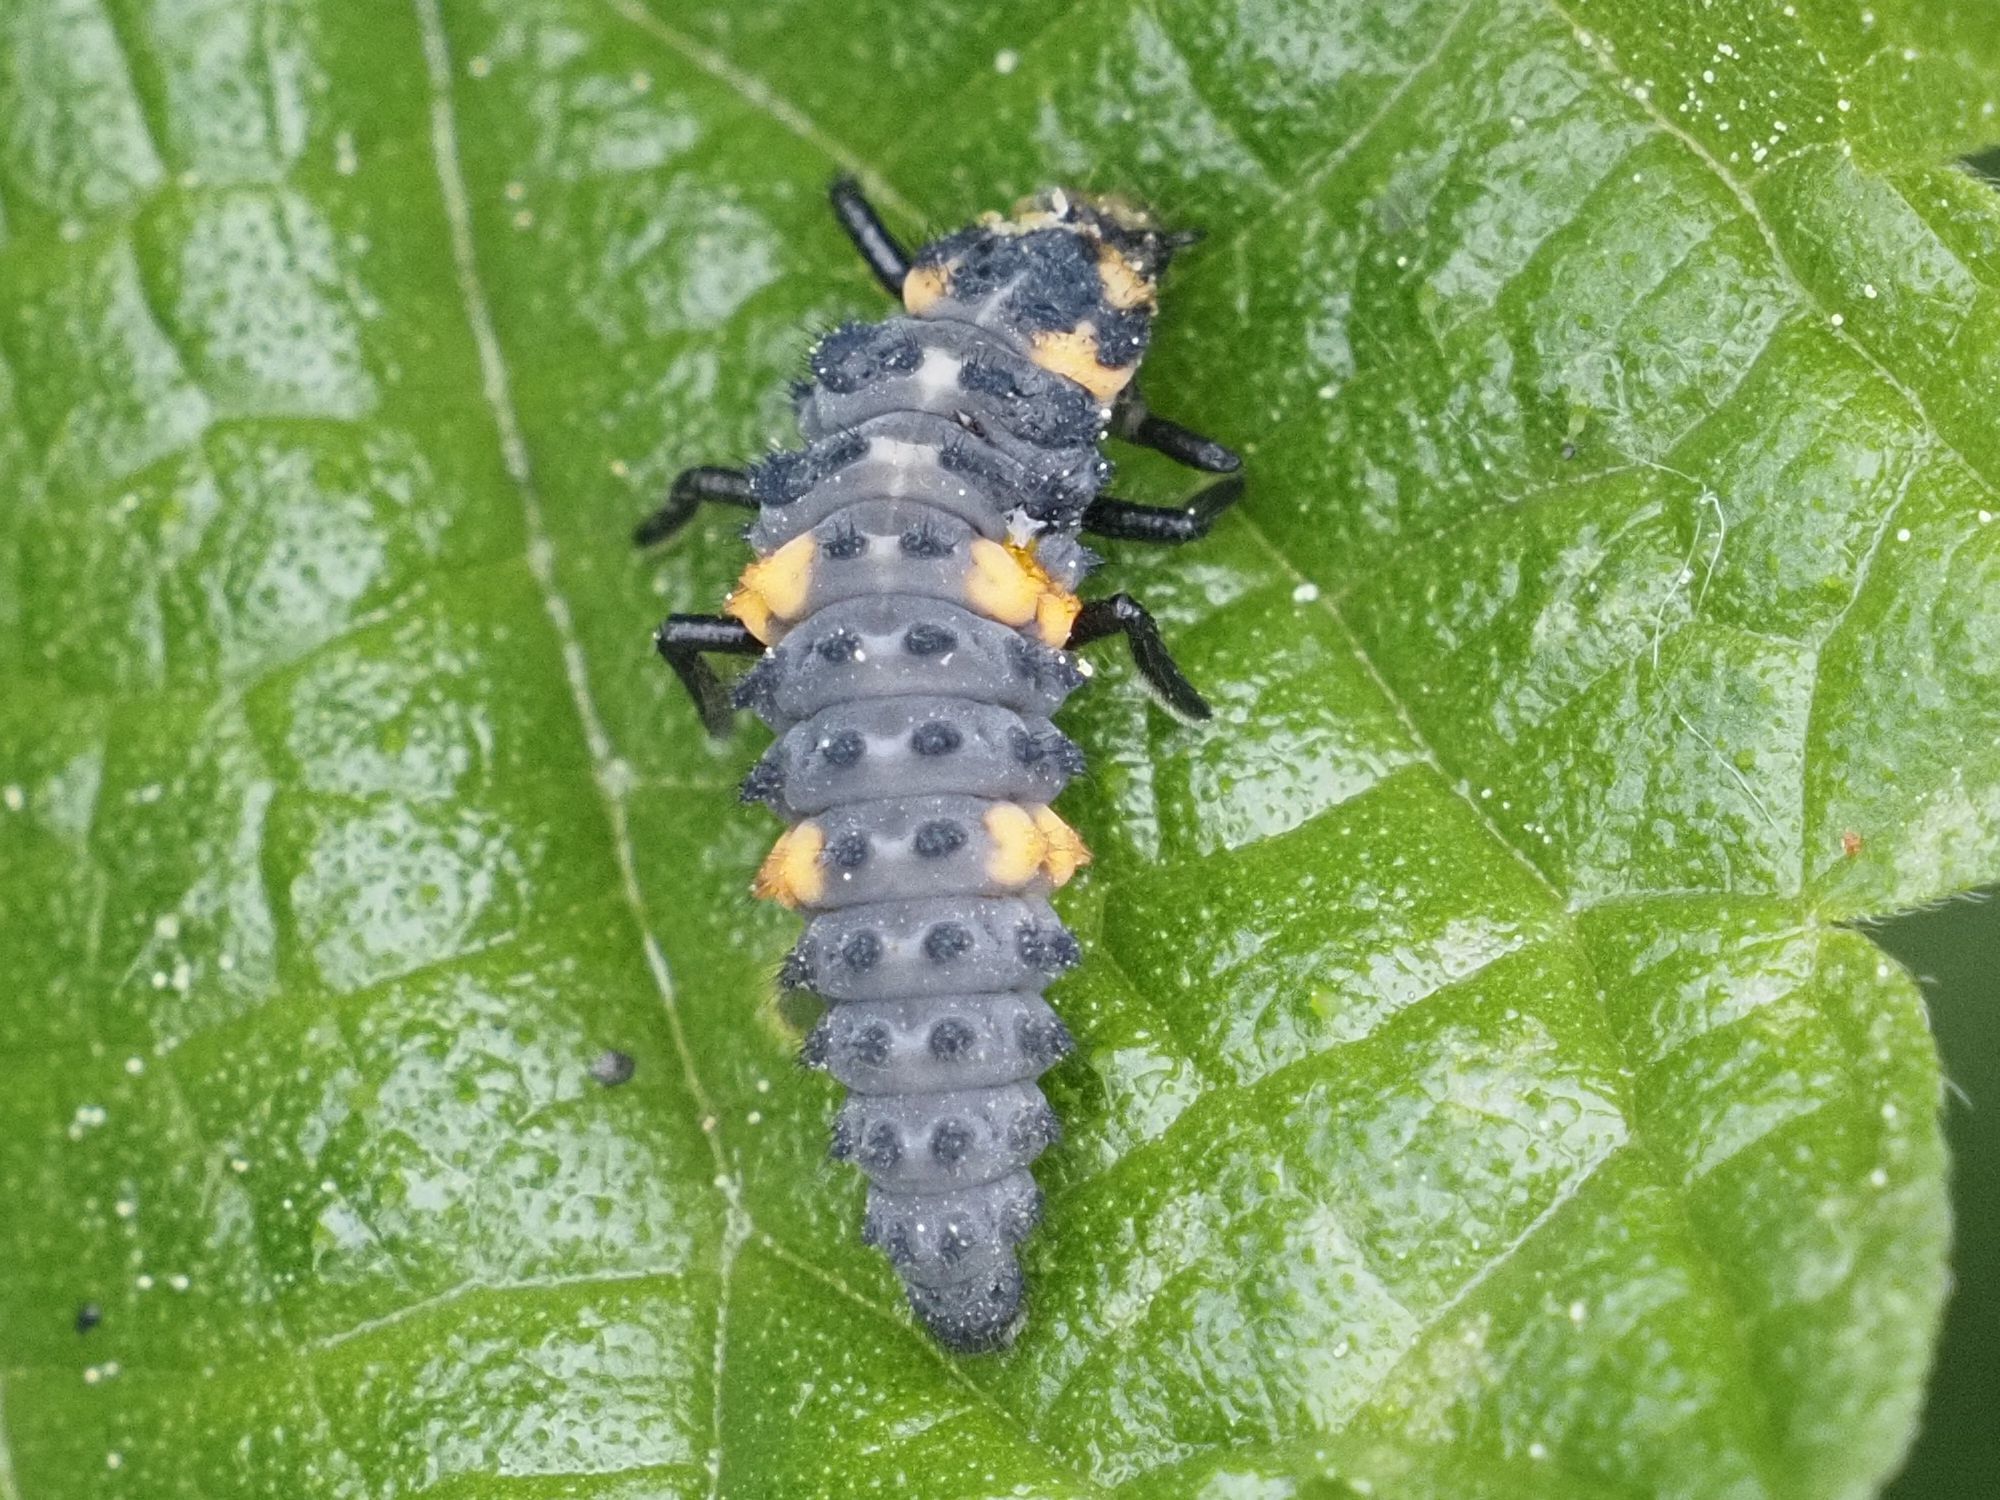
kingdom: Animalia
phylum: Arthropoda
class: Insecta
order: Coleoptera
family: Coccinellidae
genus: Coccinella
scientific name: Coccinella septempunctata
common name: Sevenspotted lady beetle
